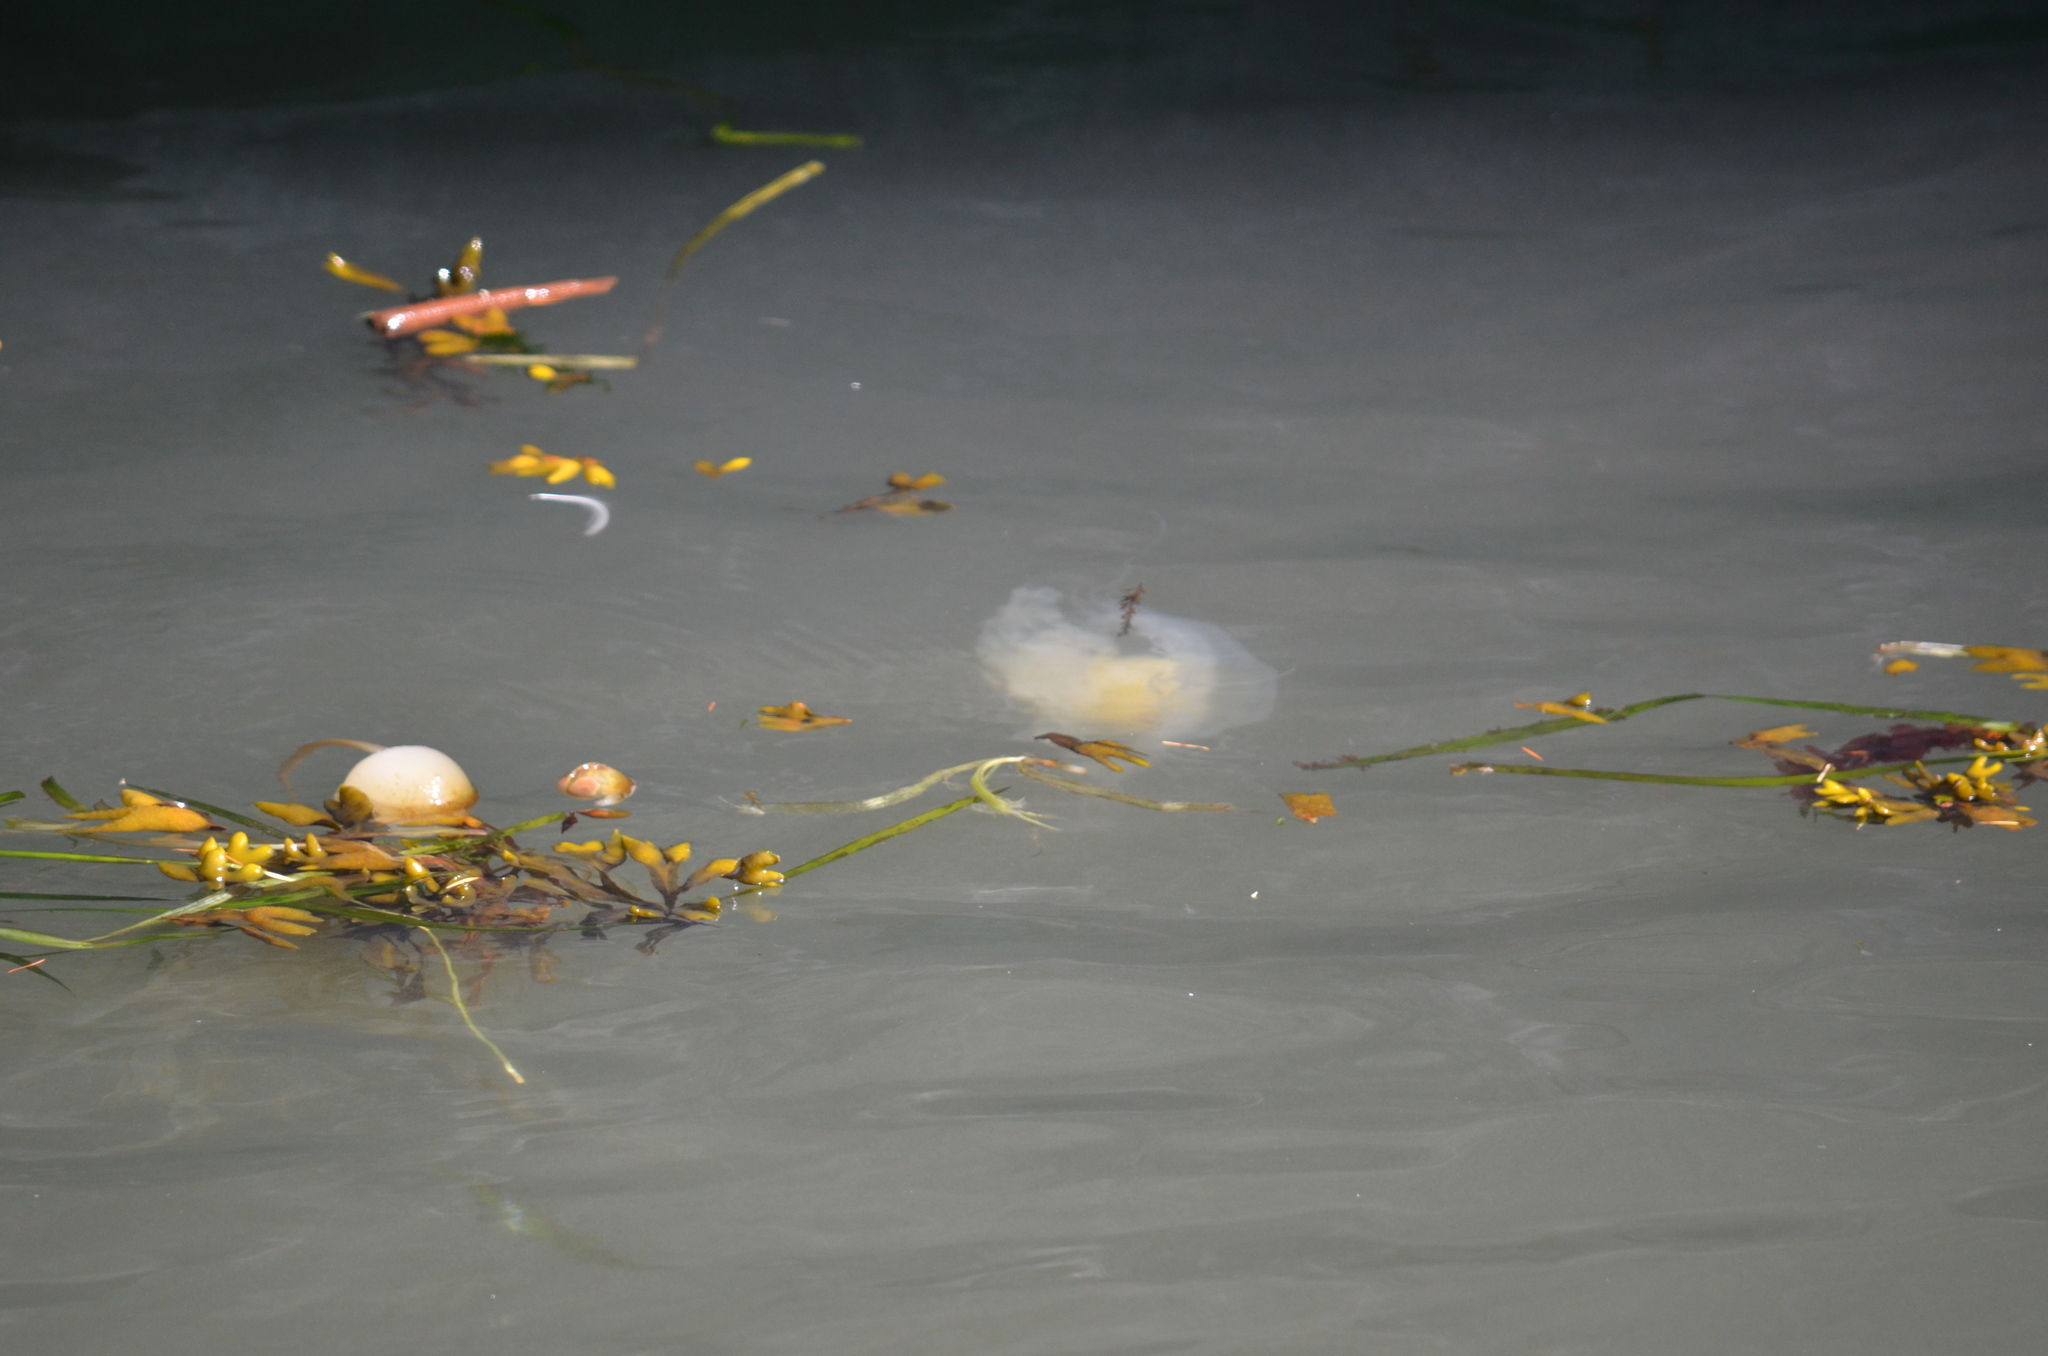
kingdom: Animalia
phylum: Cnidaria
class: Scyphozoa
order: Semaeostomeae
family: Phacellophoridae
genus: Phacellophora
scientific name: Phacellophora camtschatica
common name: Fried-egg jellyfish
